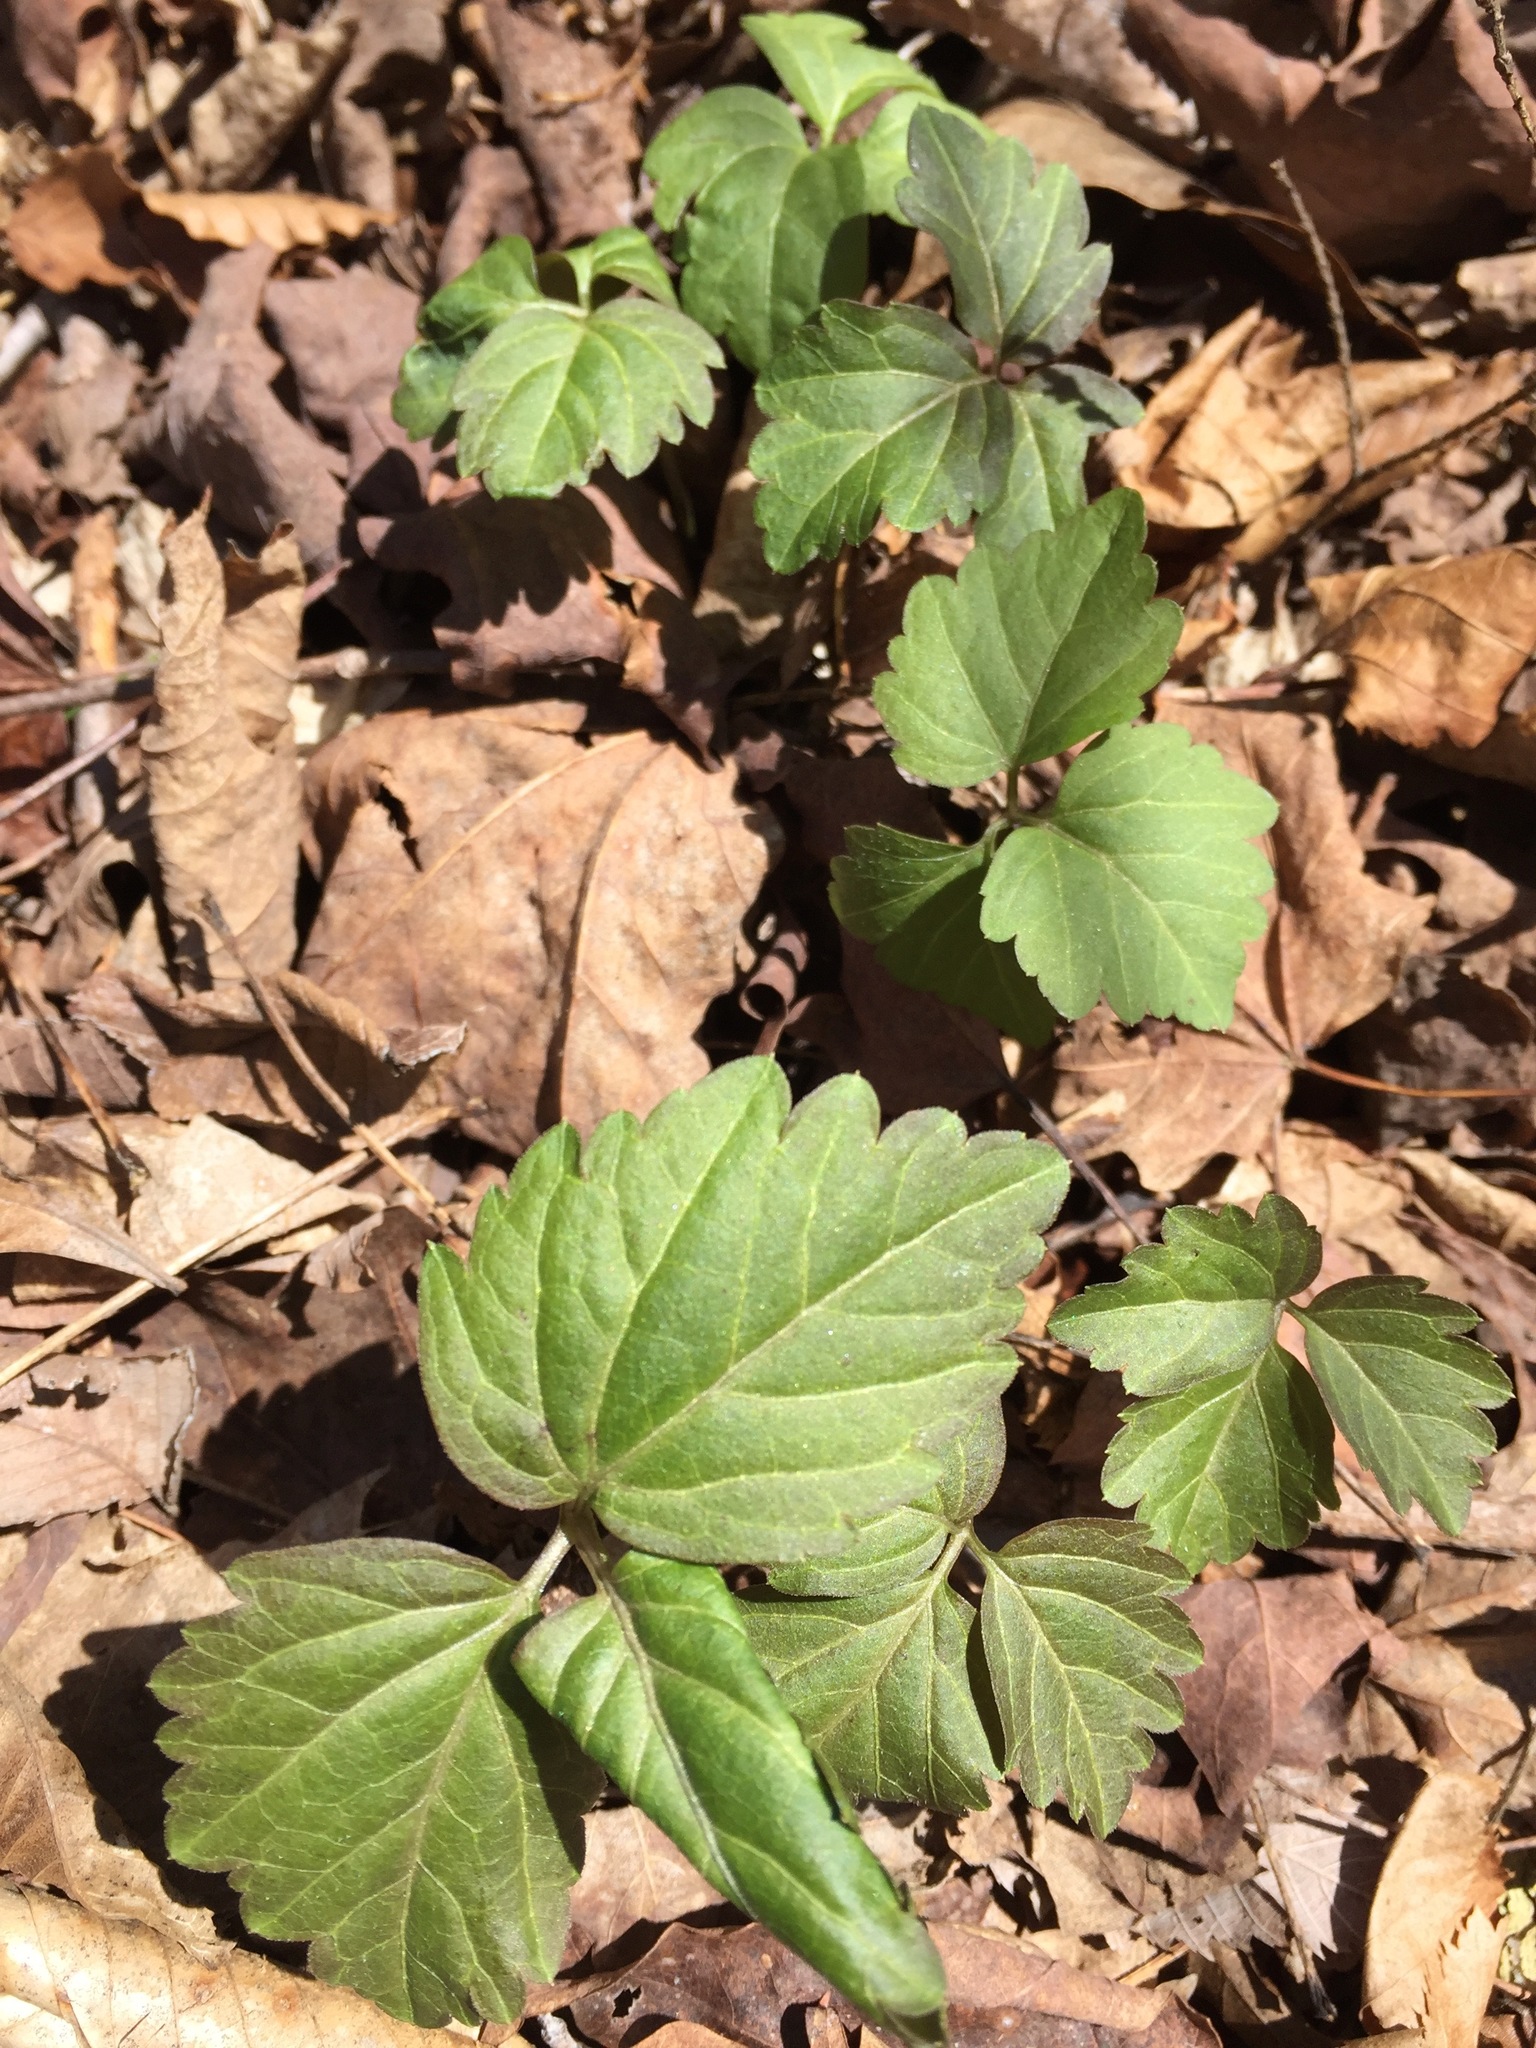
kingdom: Plantae
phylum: Tracheophyta
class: Magnoliopsida
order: Brassicales
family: Brassicaceae
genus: Cardamine
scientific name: Cardamine diphylla
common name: Broad-leaved toothwort
